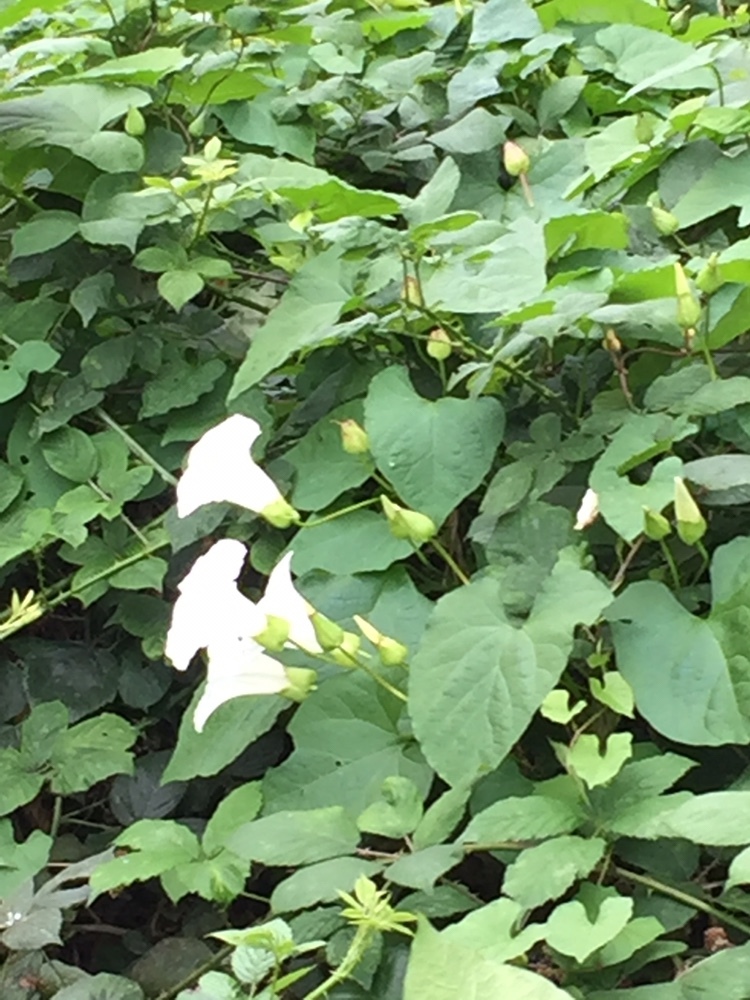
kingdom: Plantae
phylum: Tracheophyta
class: Magnoliopsida
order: Solanales
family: Convolvulaceae
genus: Calystegia
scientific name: Calystegia silvatica
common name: Large bindweed
